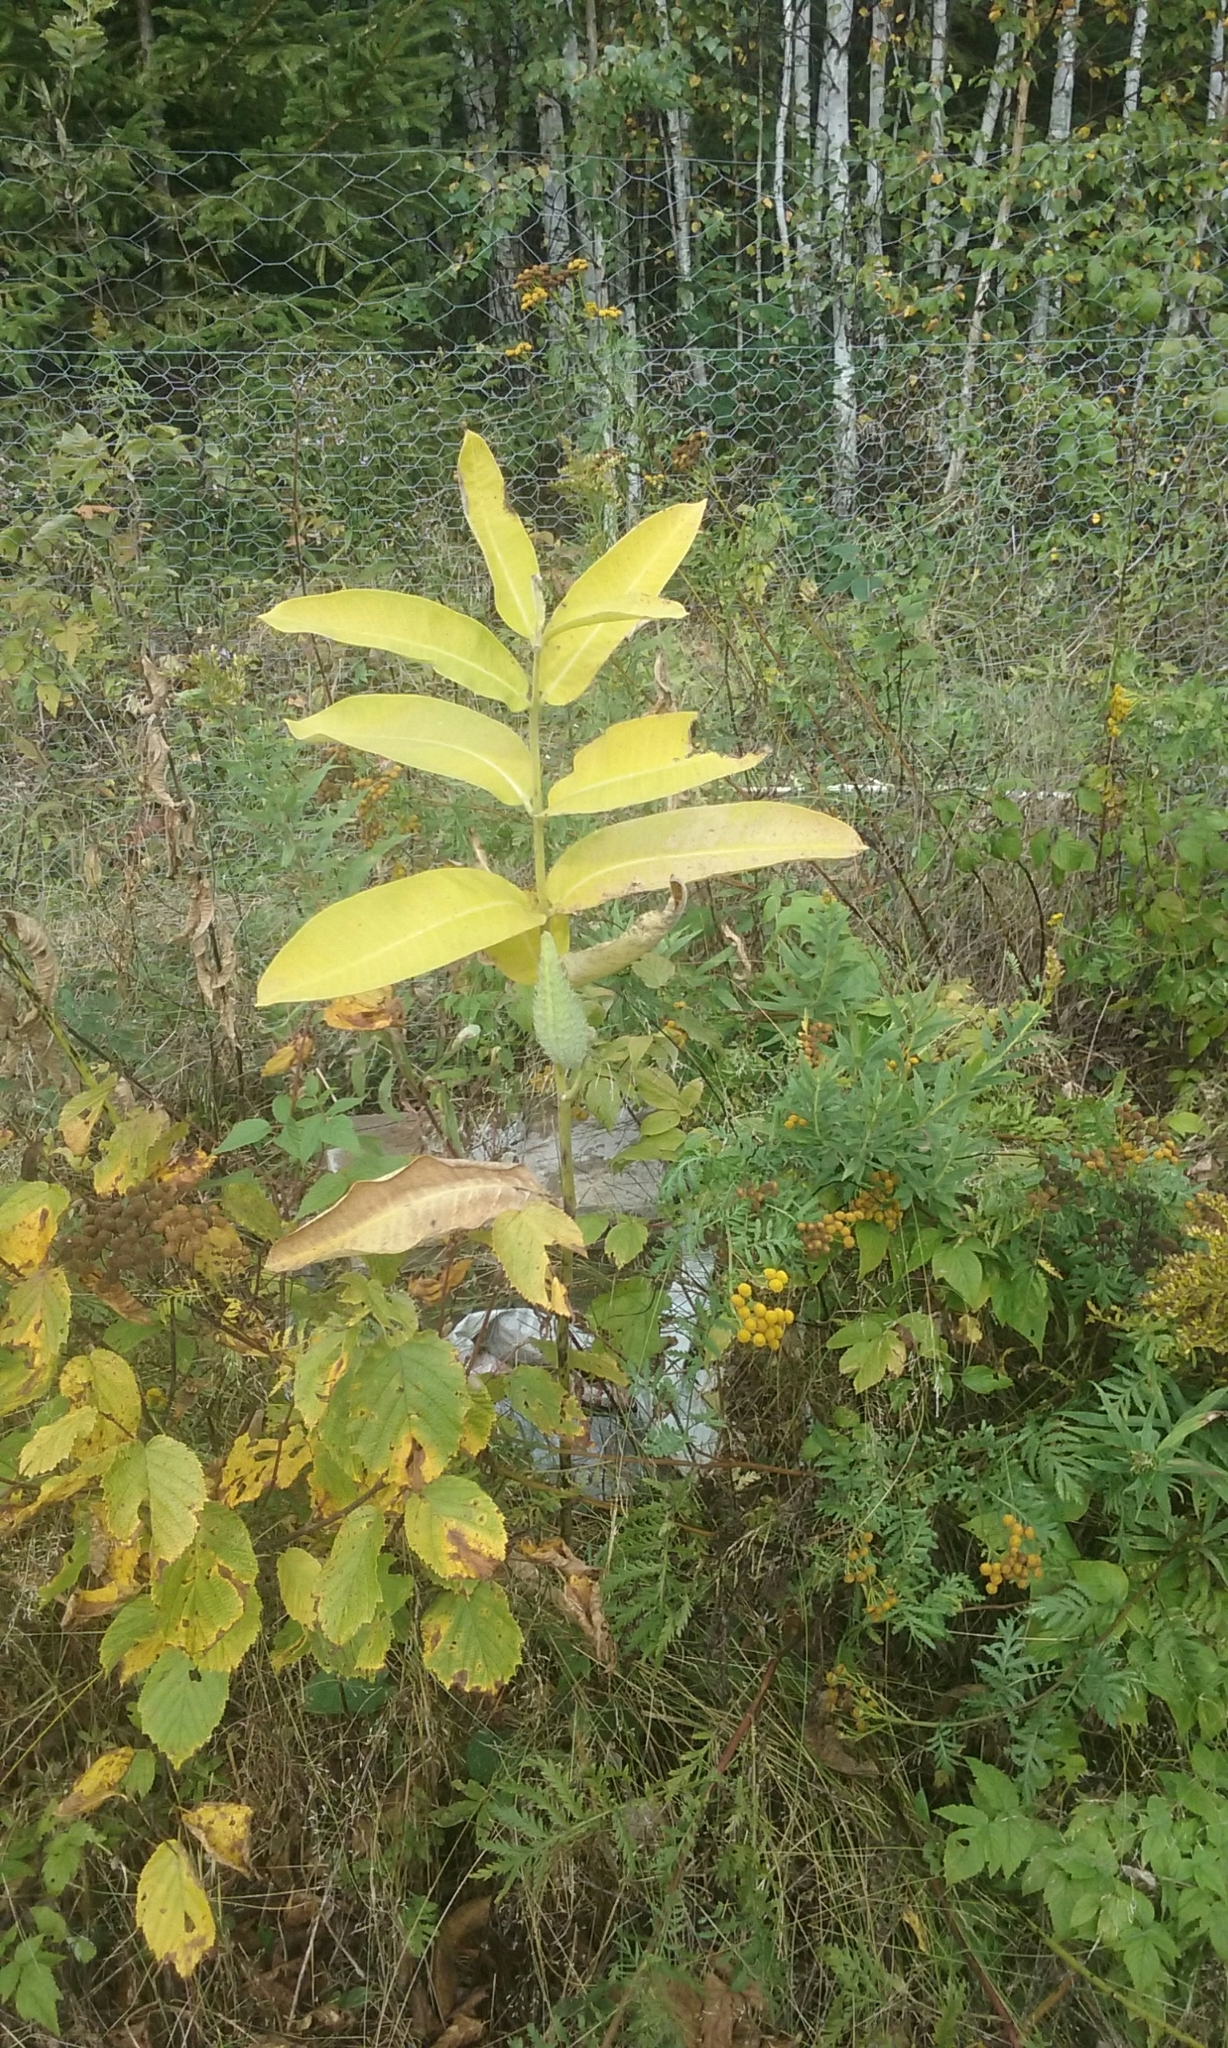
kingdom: Plantae
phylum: Tracheophyta
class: Magnoliopsida
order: Gentianales
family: Apocynaceae
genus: Asclepias
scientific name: Asclepias syriaca
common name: Common milkweed
